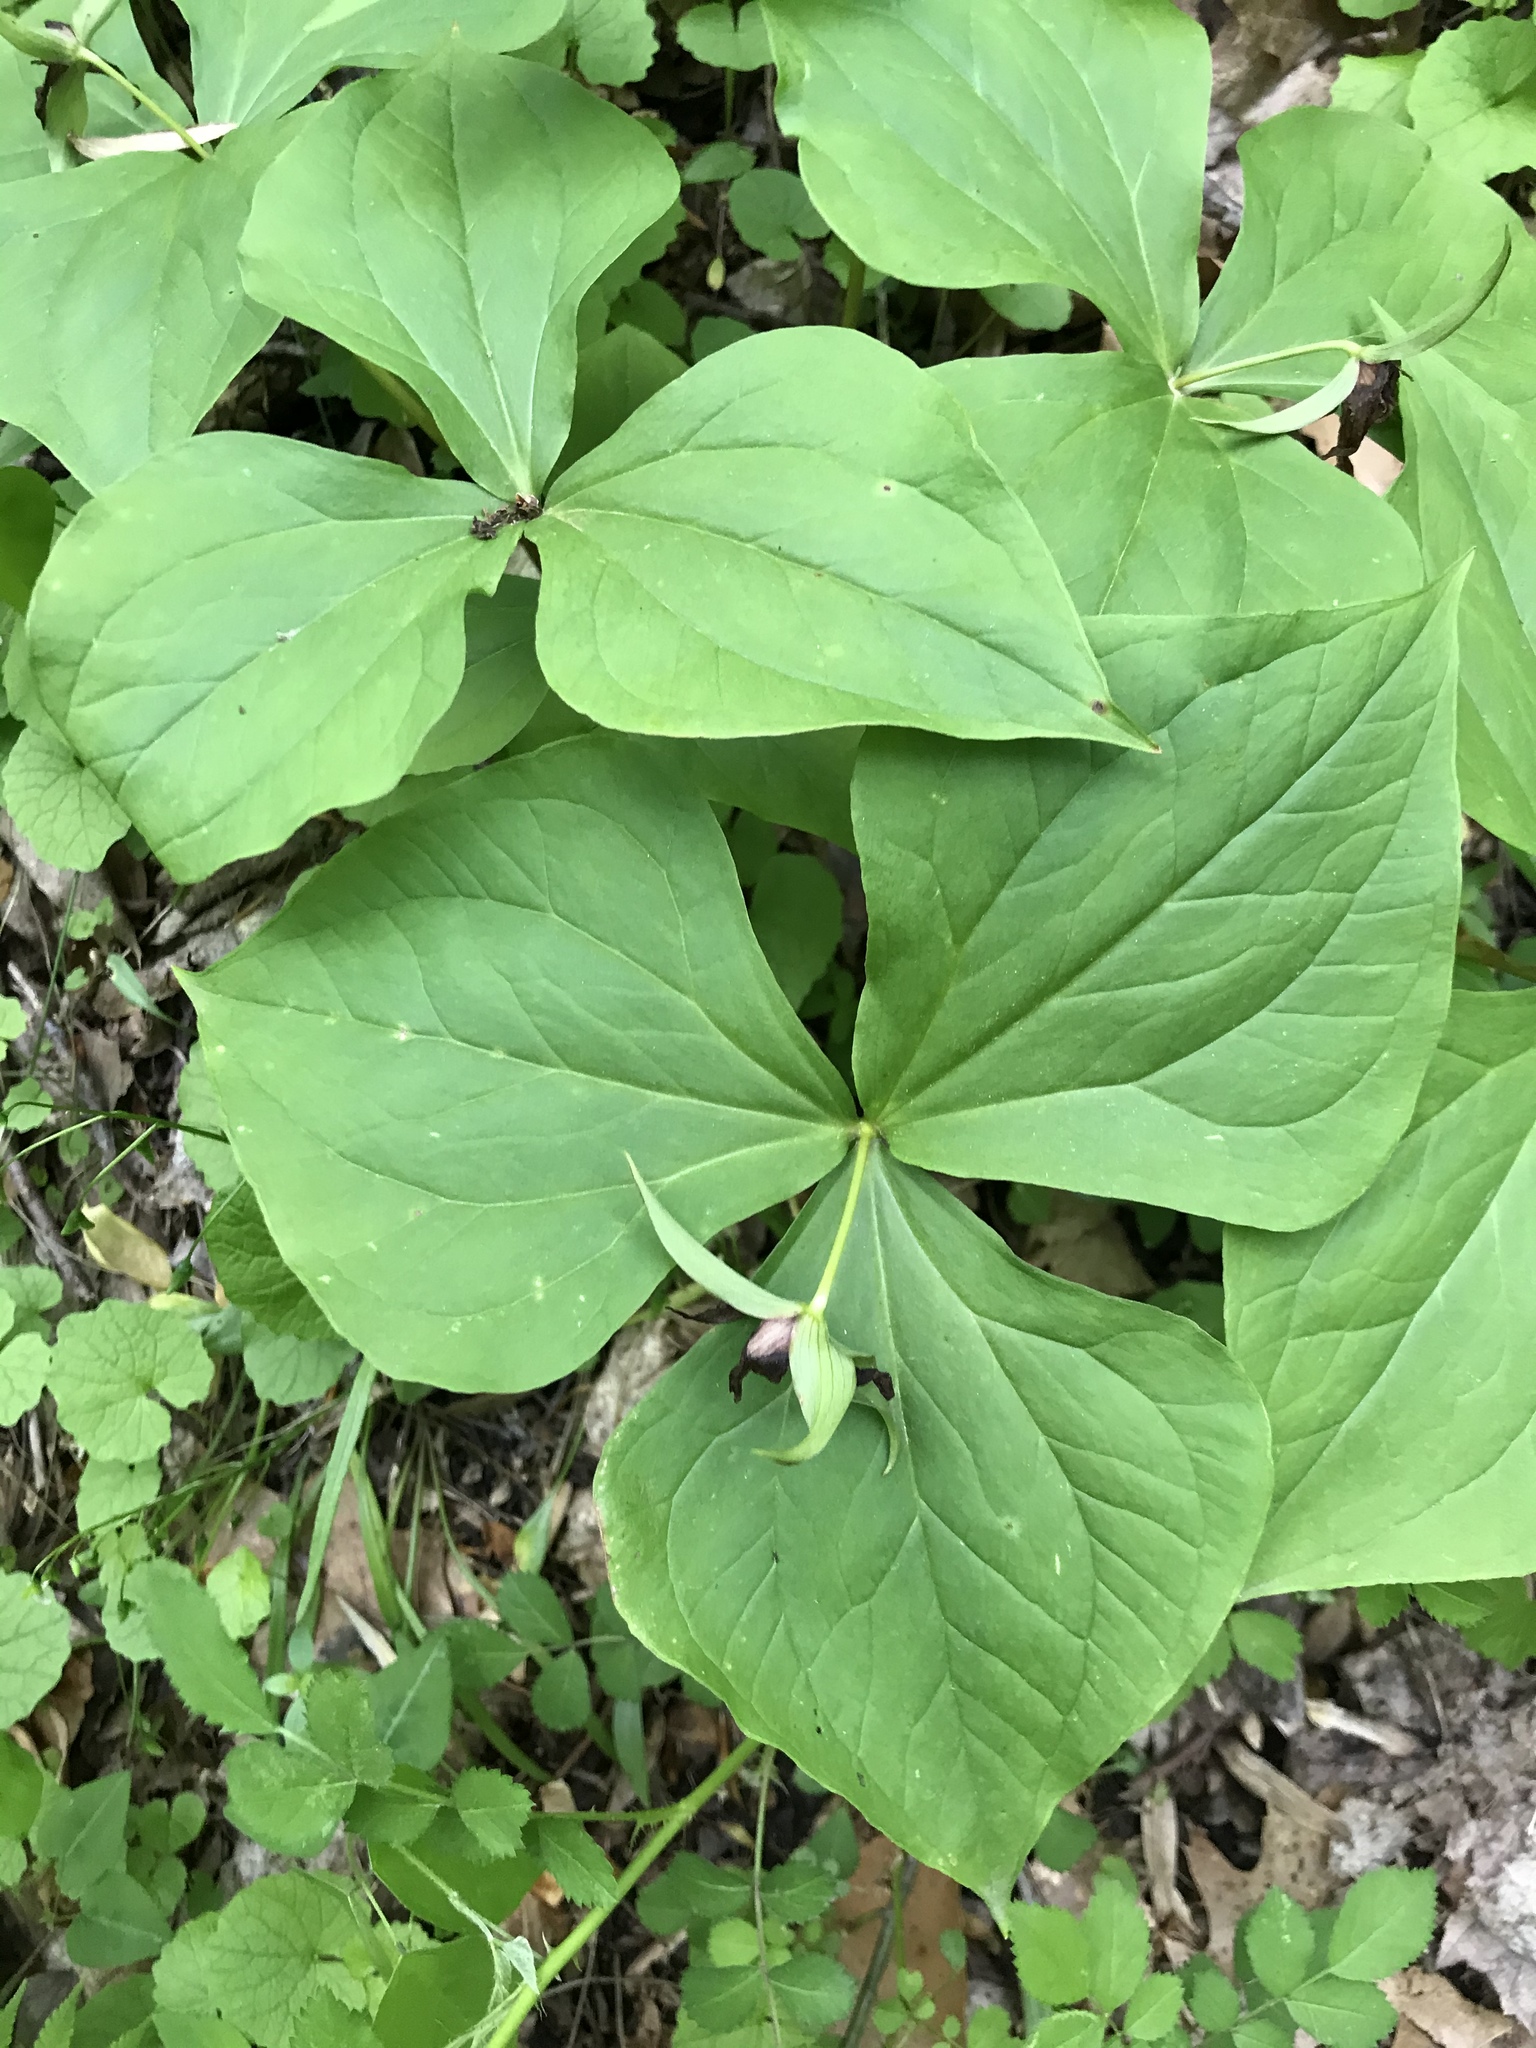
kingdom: Plantae
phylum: Tracheophyta
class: Liliopsida
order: Liliales
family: Melanthiaceae
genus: Trillium
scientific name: Trillium erectum
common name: Purple trillium
